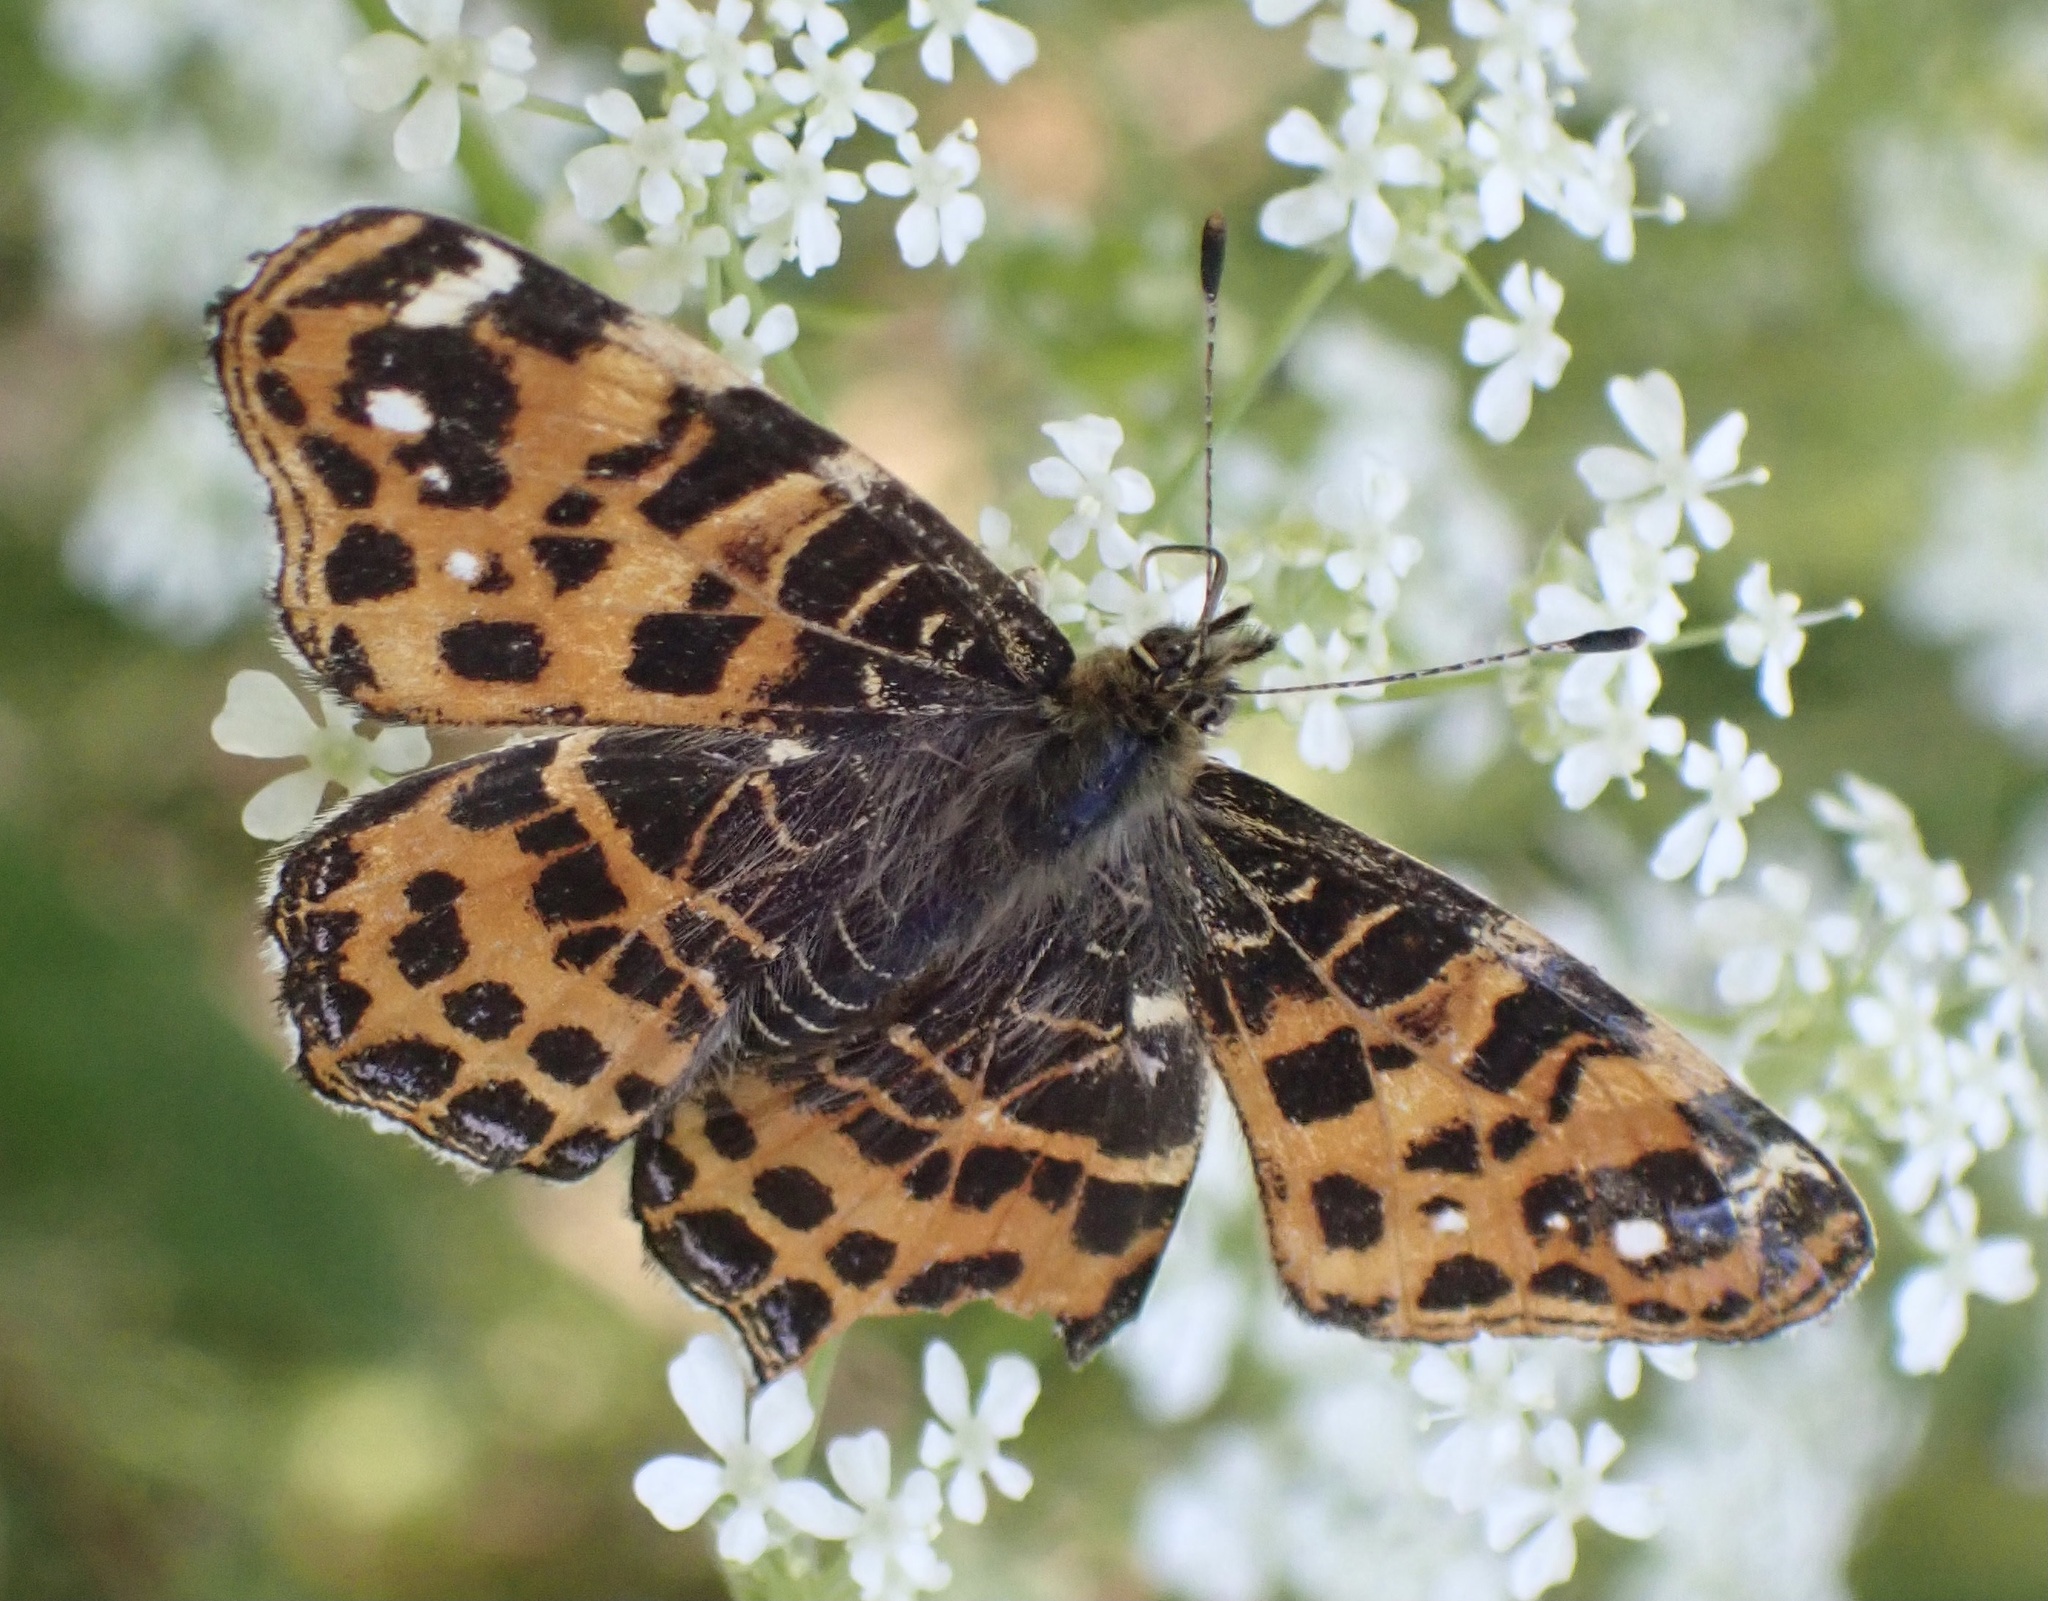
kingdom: Animalia
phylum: Arthropoda
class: Insecta
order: Lepidoptera
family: Nymphalidae
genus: Araschnia
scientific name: Araschnia levana
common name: Map butterfly
